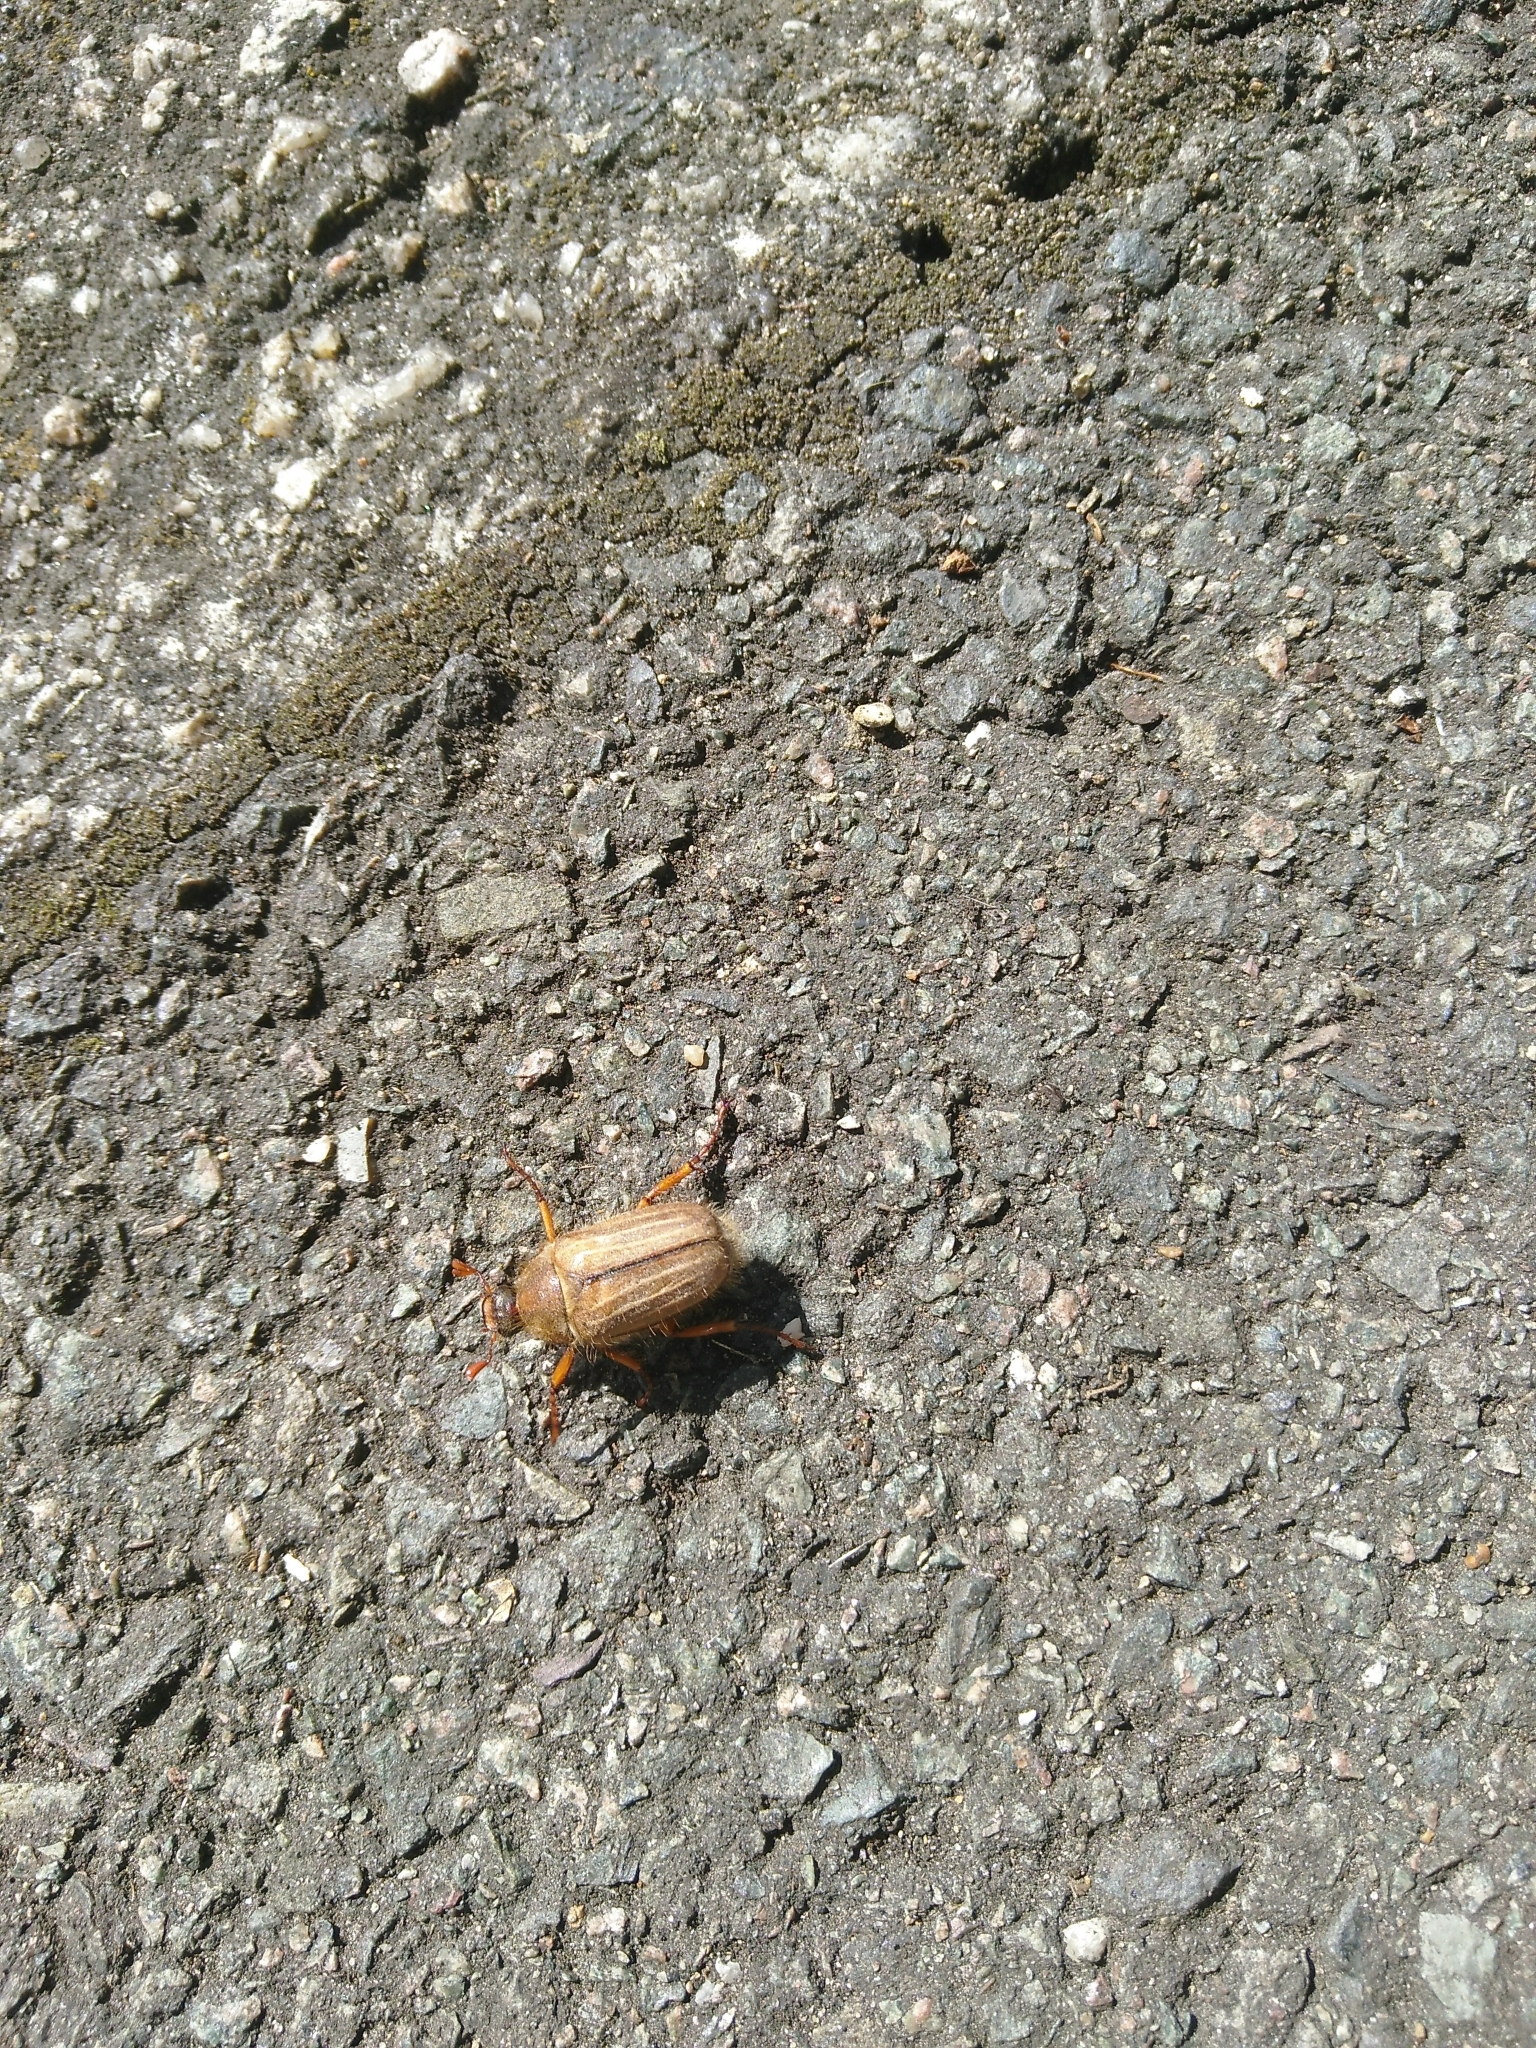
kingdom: Animalia
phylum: Arthropoda
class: Insecta
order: Coleoptera
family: Scarabaeidae
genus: Amphimallon
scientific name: Amphimallon solstitiale
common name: Summer chafer
